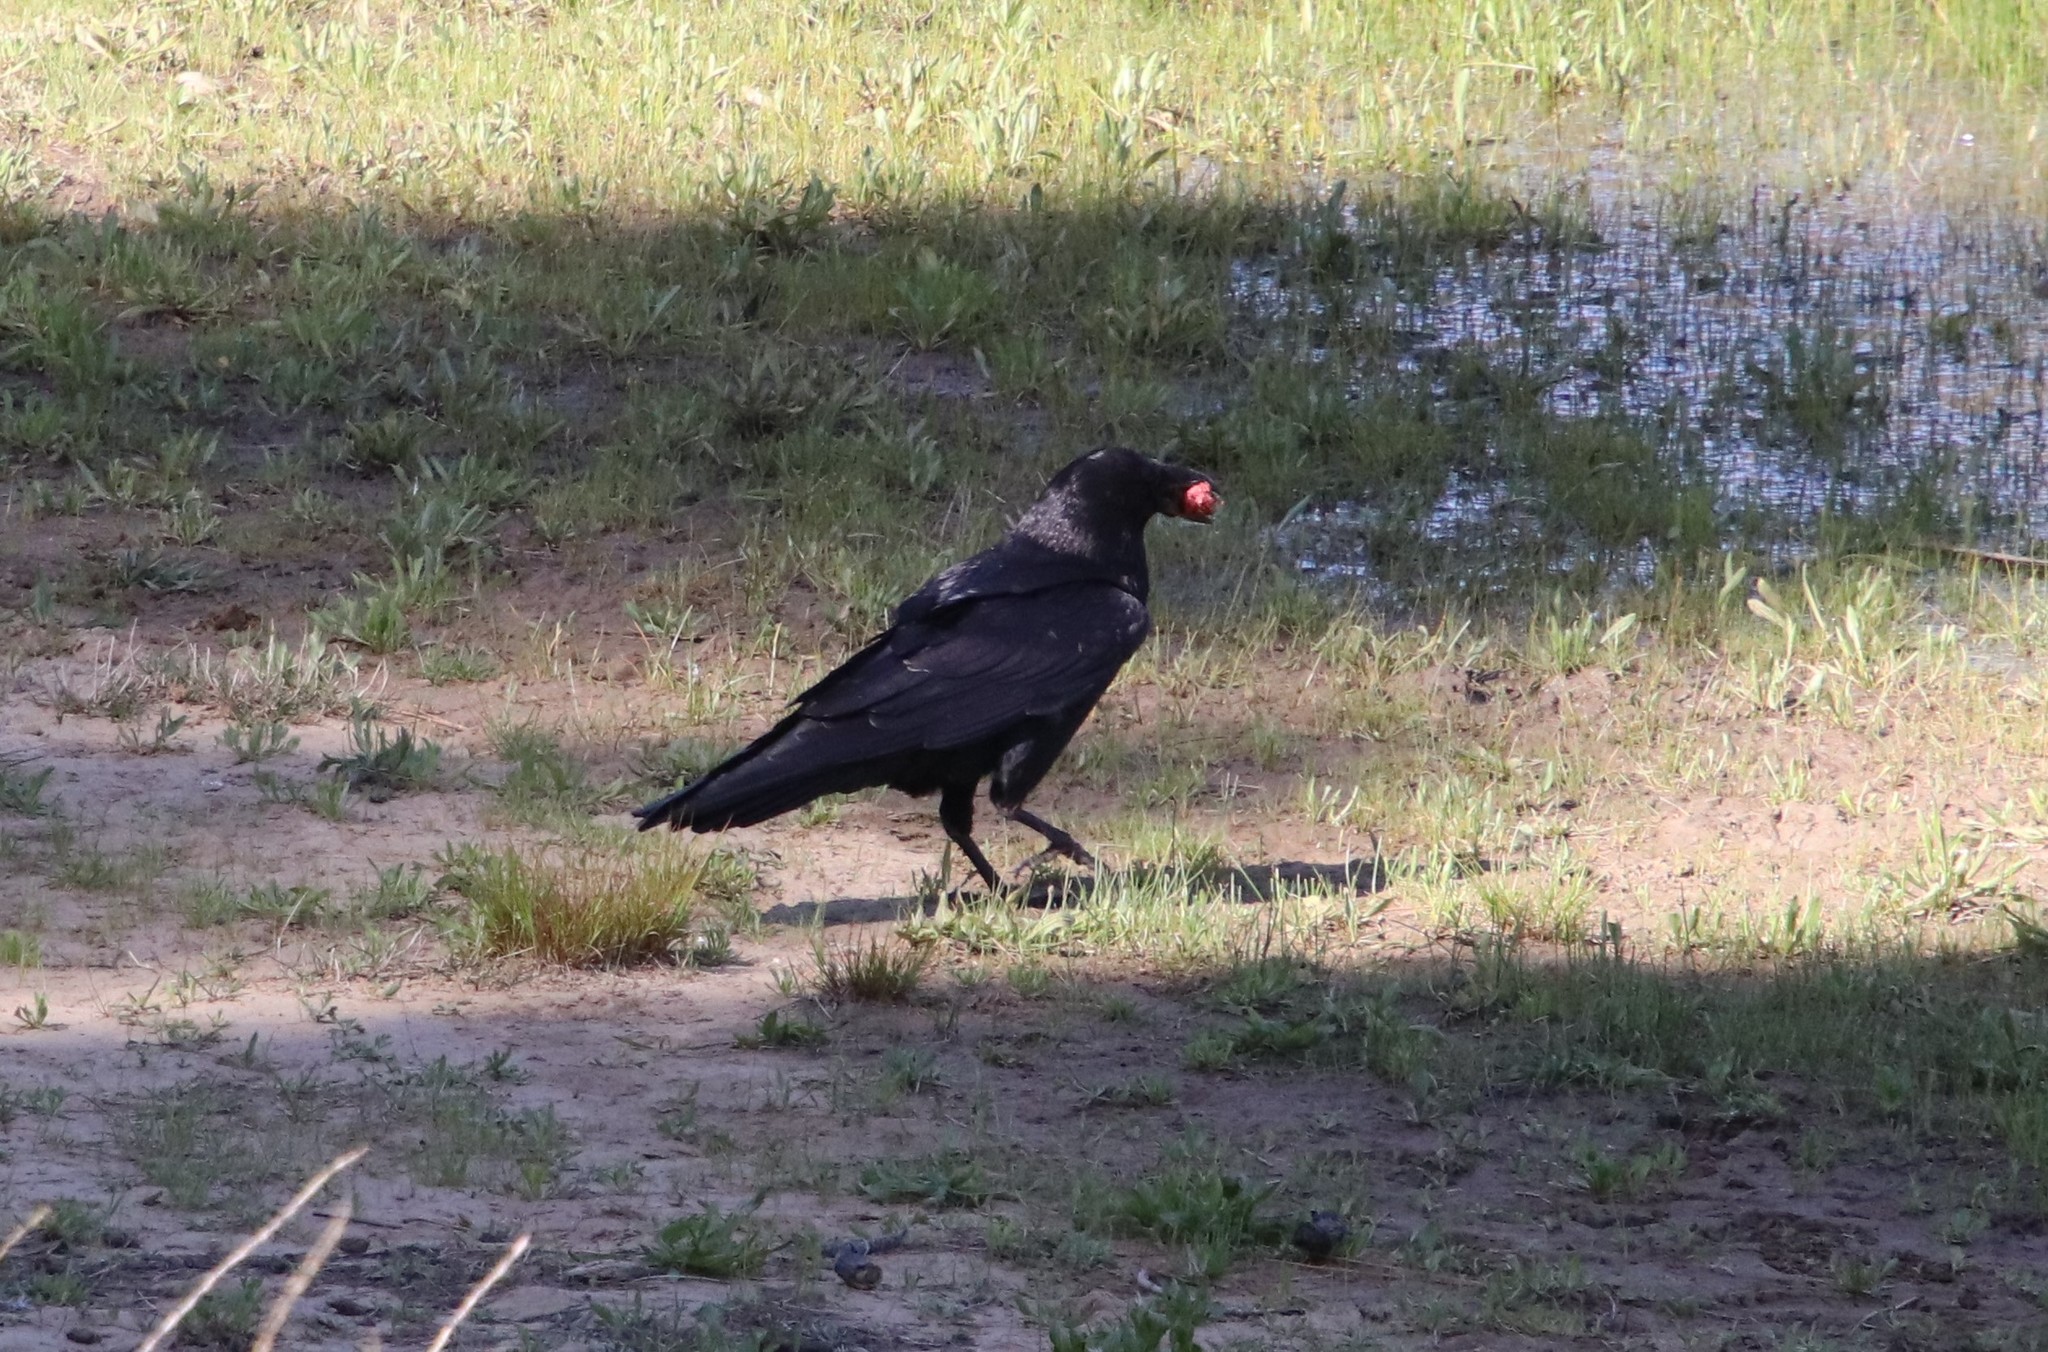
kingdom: Animalia
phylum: Chordata
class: Aves
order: Passeriformes
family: Corvidae
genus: Corvus
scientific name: Corvus corax
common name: Common raven
